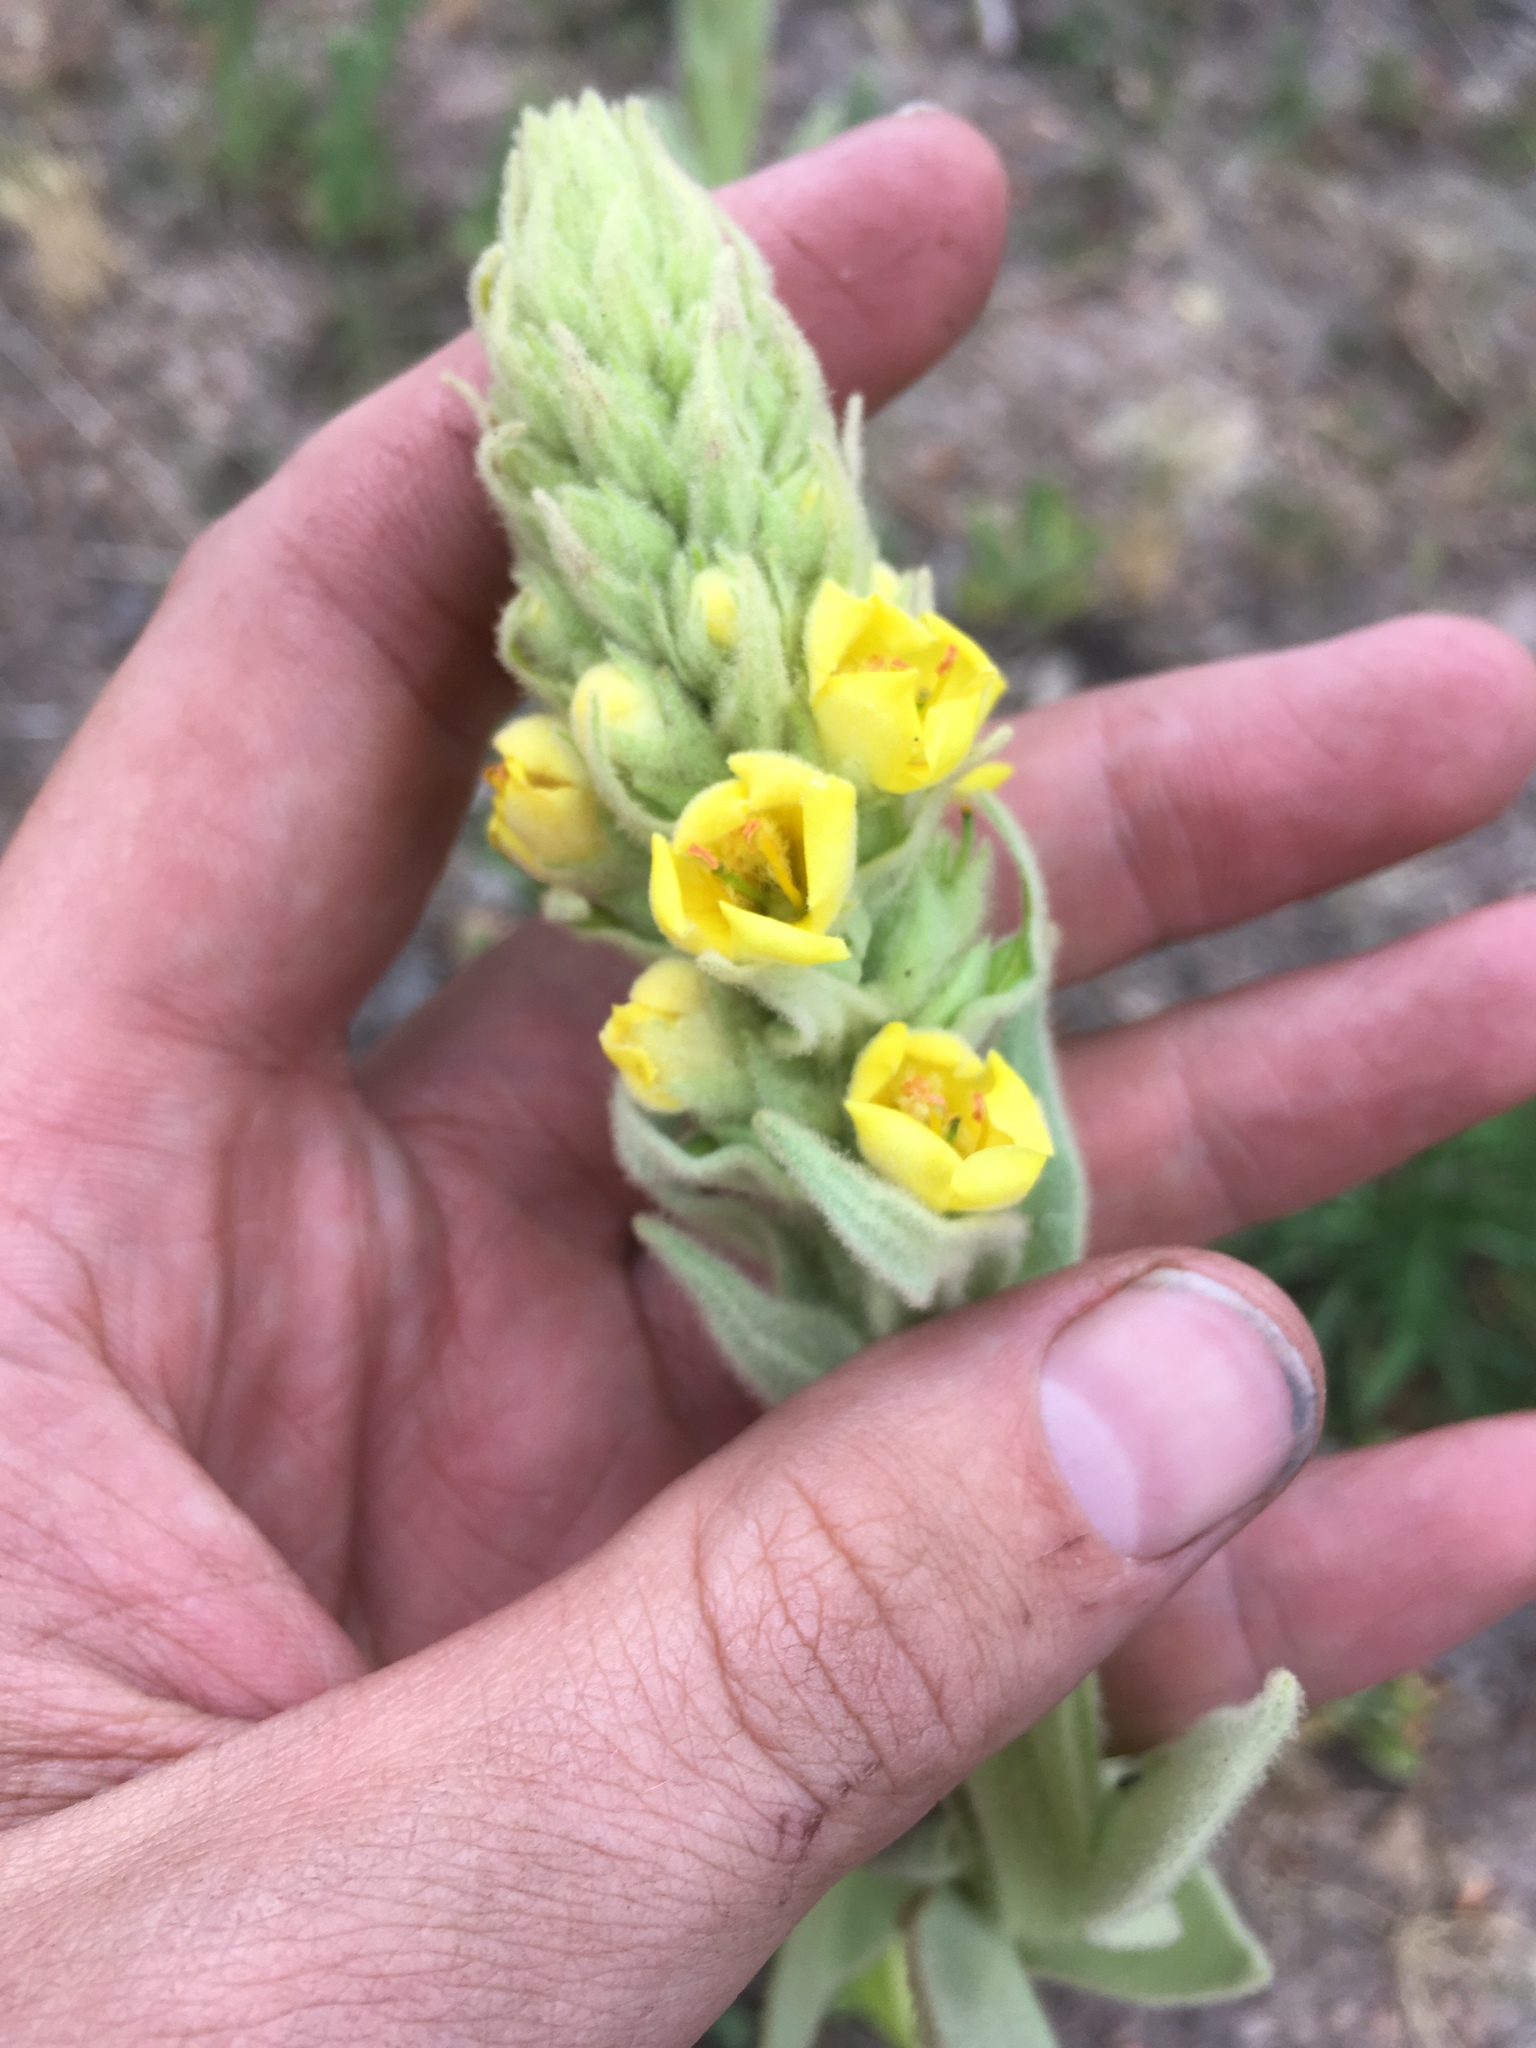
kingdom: Plantae
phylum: Tracheophyta
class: Magnoliopsida
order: Lamiales
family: Scrophulariaceae
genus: Verbascum
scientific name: Verbascum thapsus
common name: Common mullein
